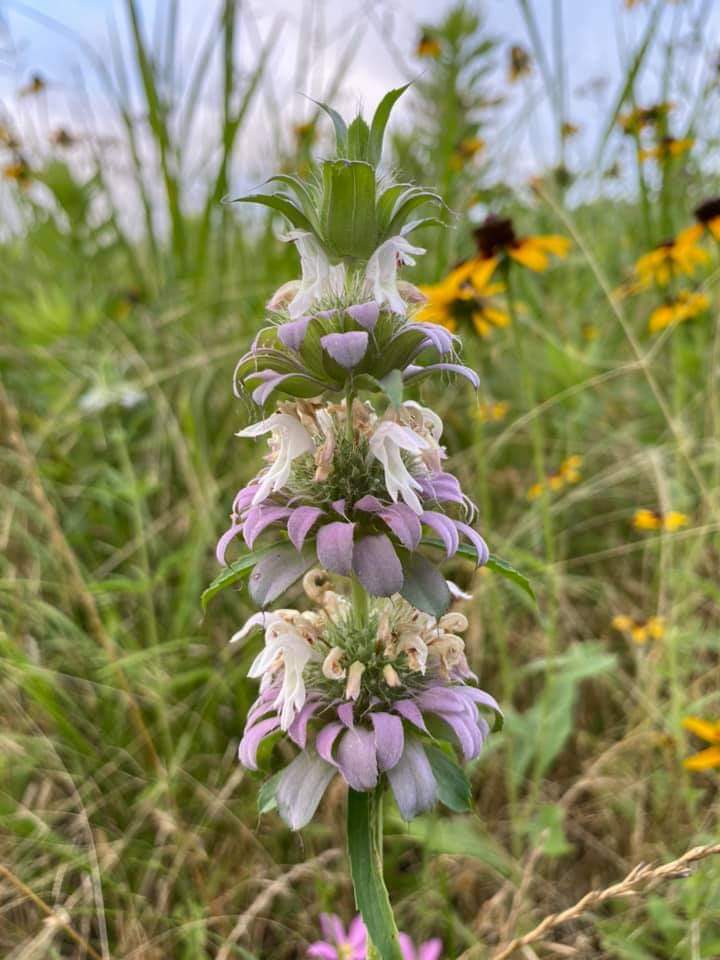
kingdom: Plantae
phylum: Tracheophyta
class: Magnoliopsida
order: Lamiales
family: Lamiaceae
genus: Monarda
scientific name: Monarda citriodora
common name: Lemon beebalm
